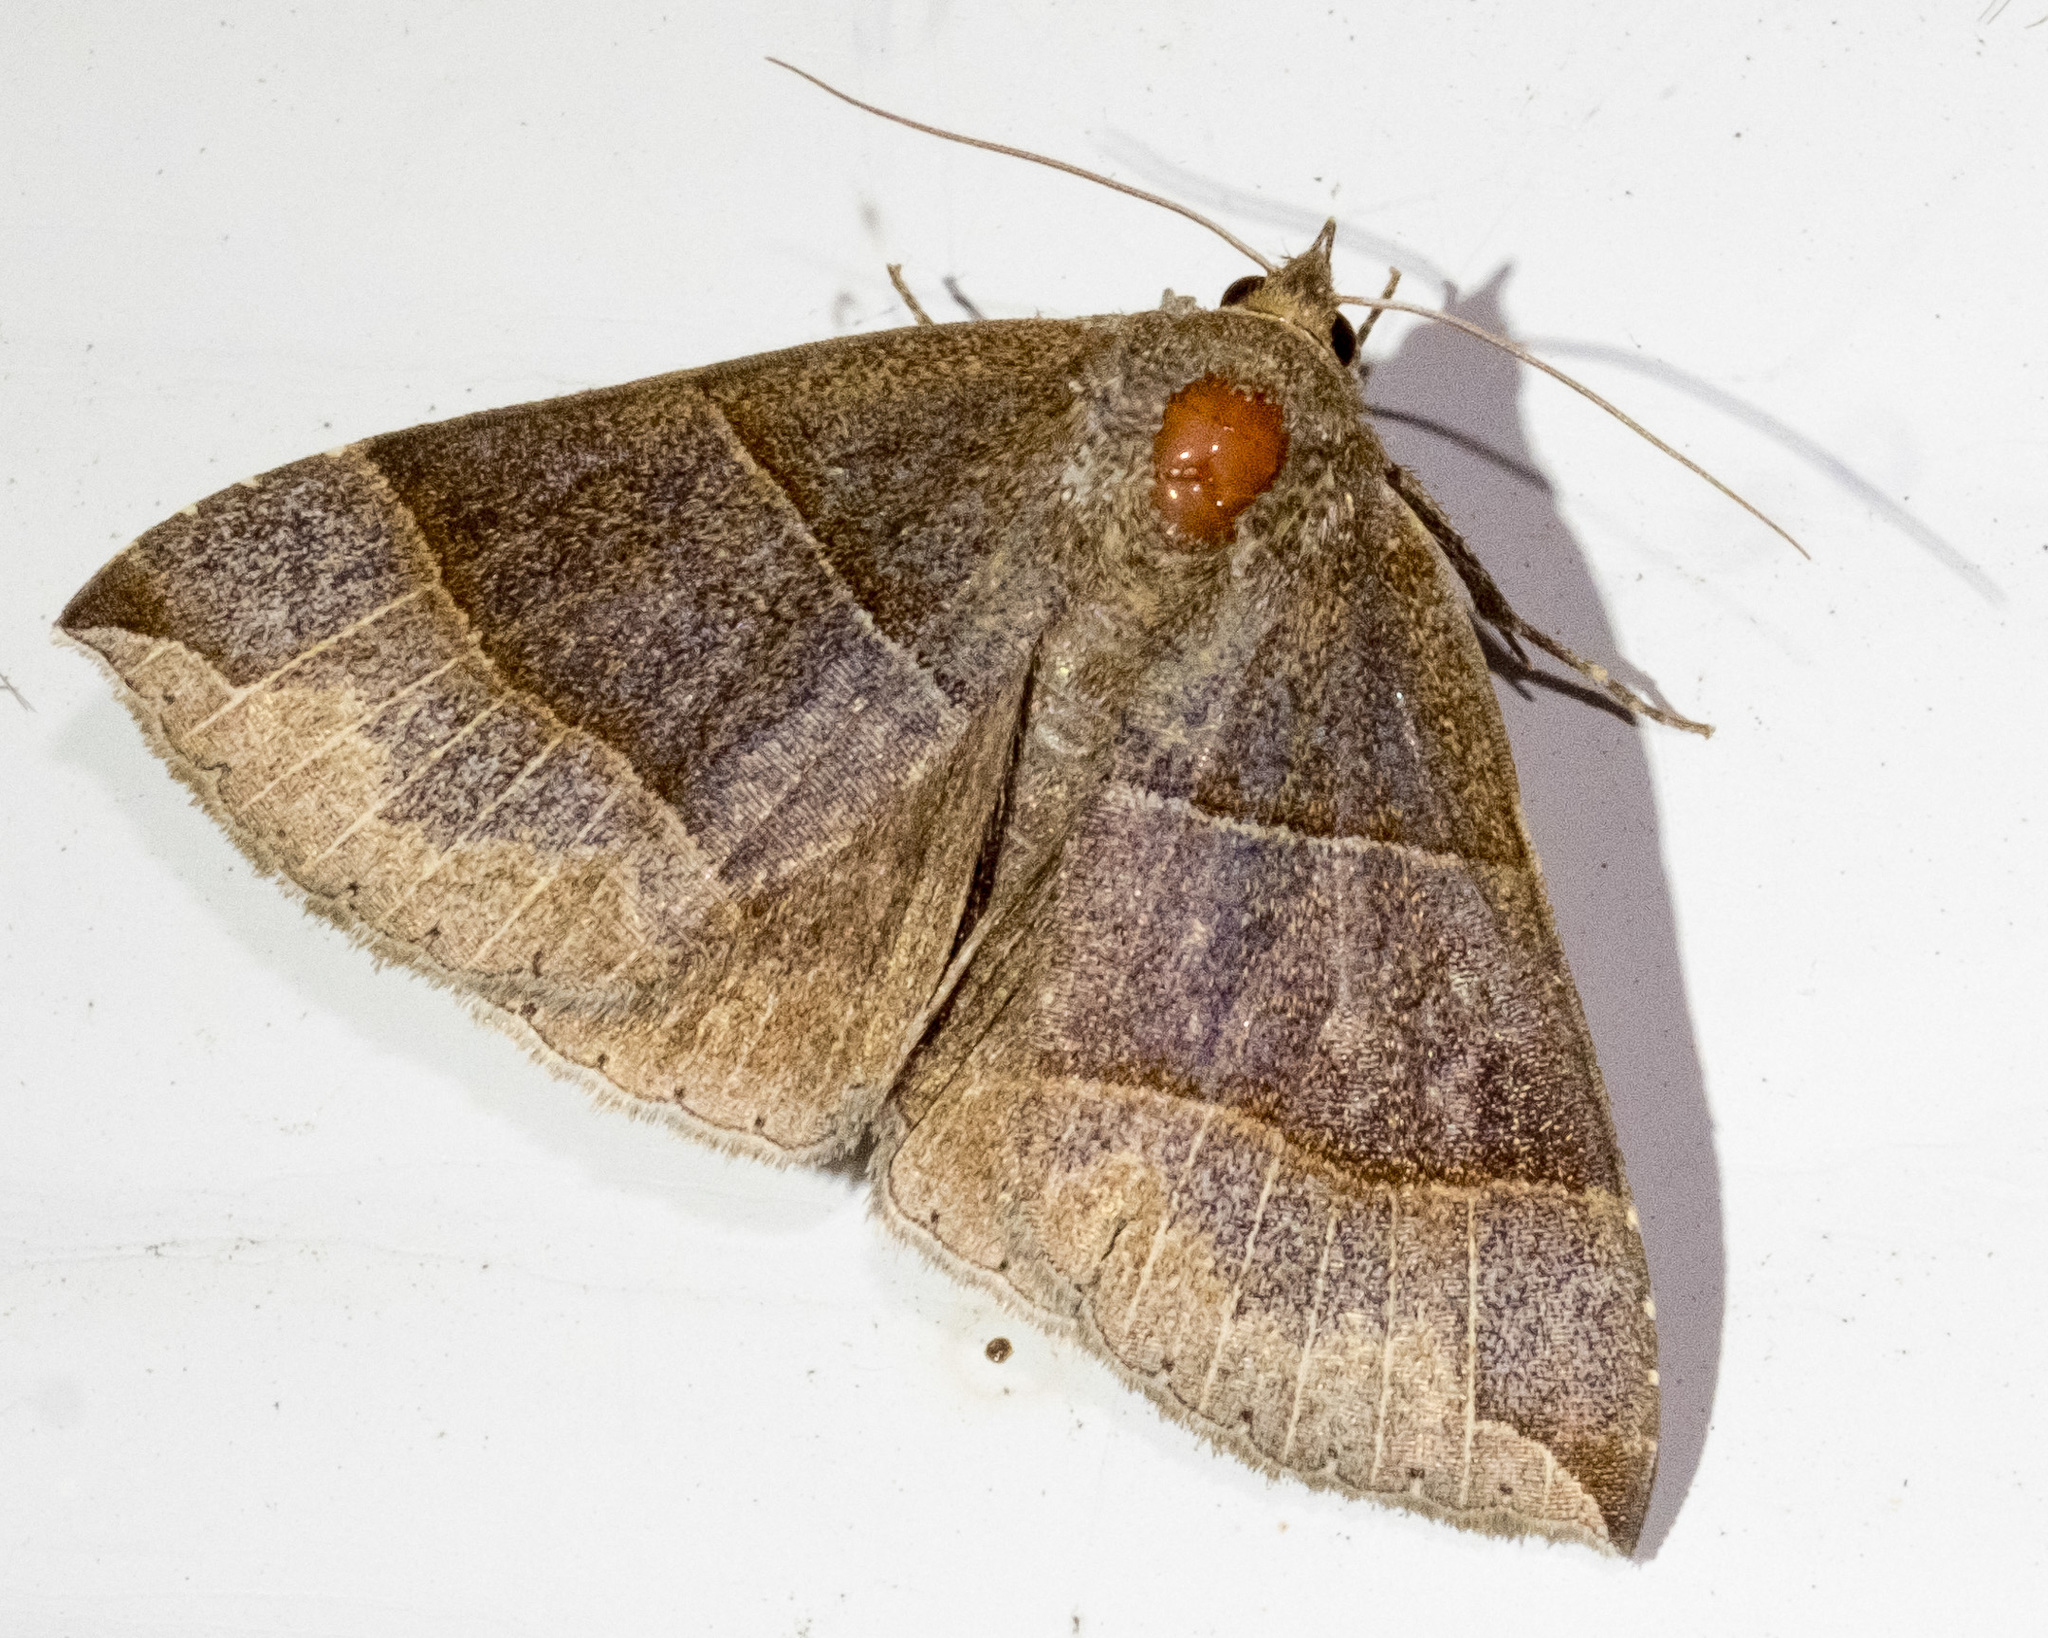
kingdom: Animalia
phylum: Arthropoda
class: Insecta
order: Lepidoptera
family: Erebidae
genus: Parallelia
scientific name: Parallelia bistriaris
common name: Maple looper moth
